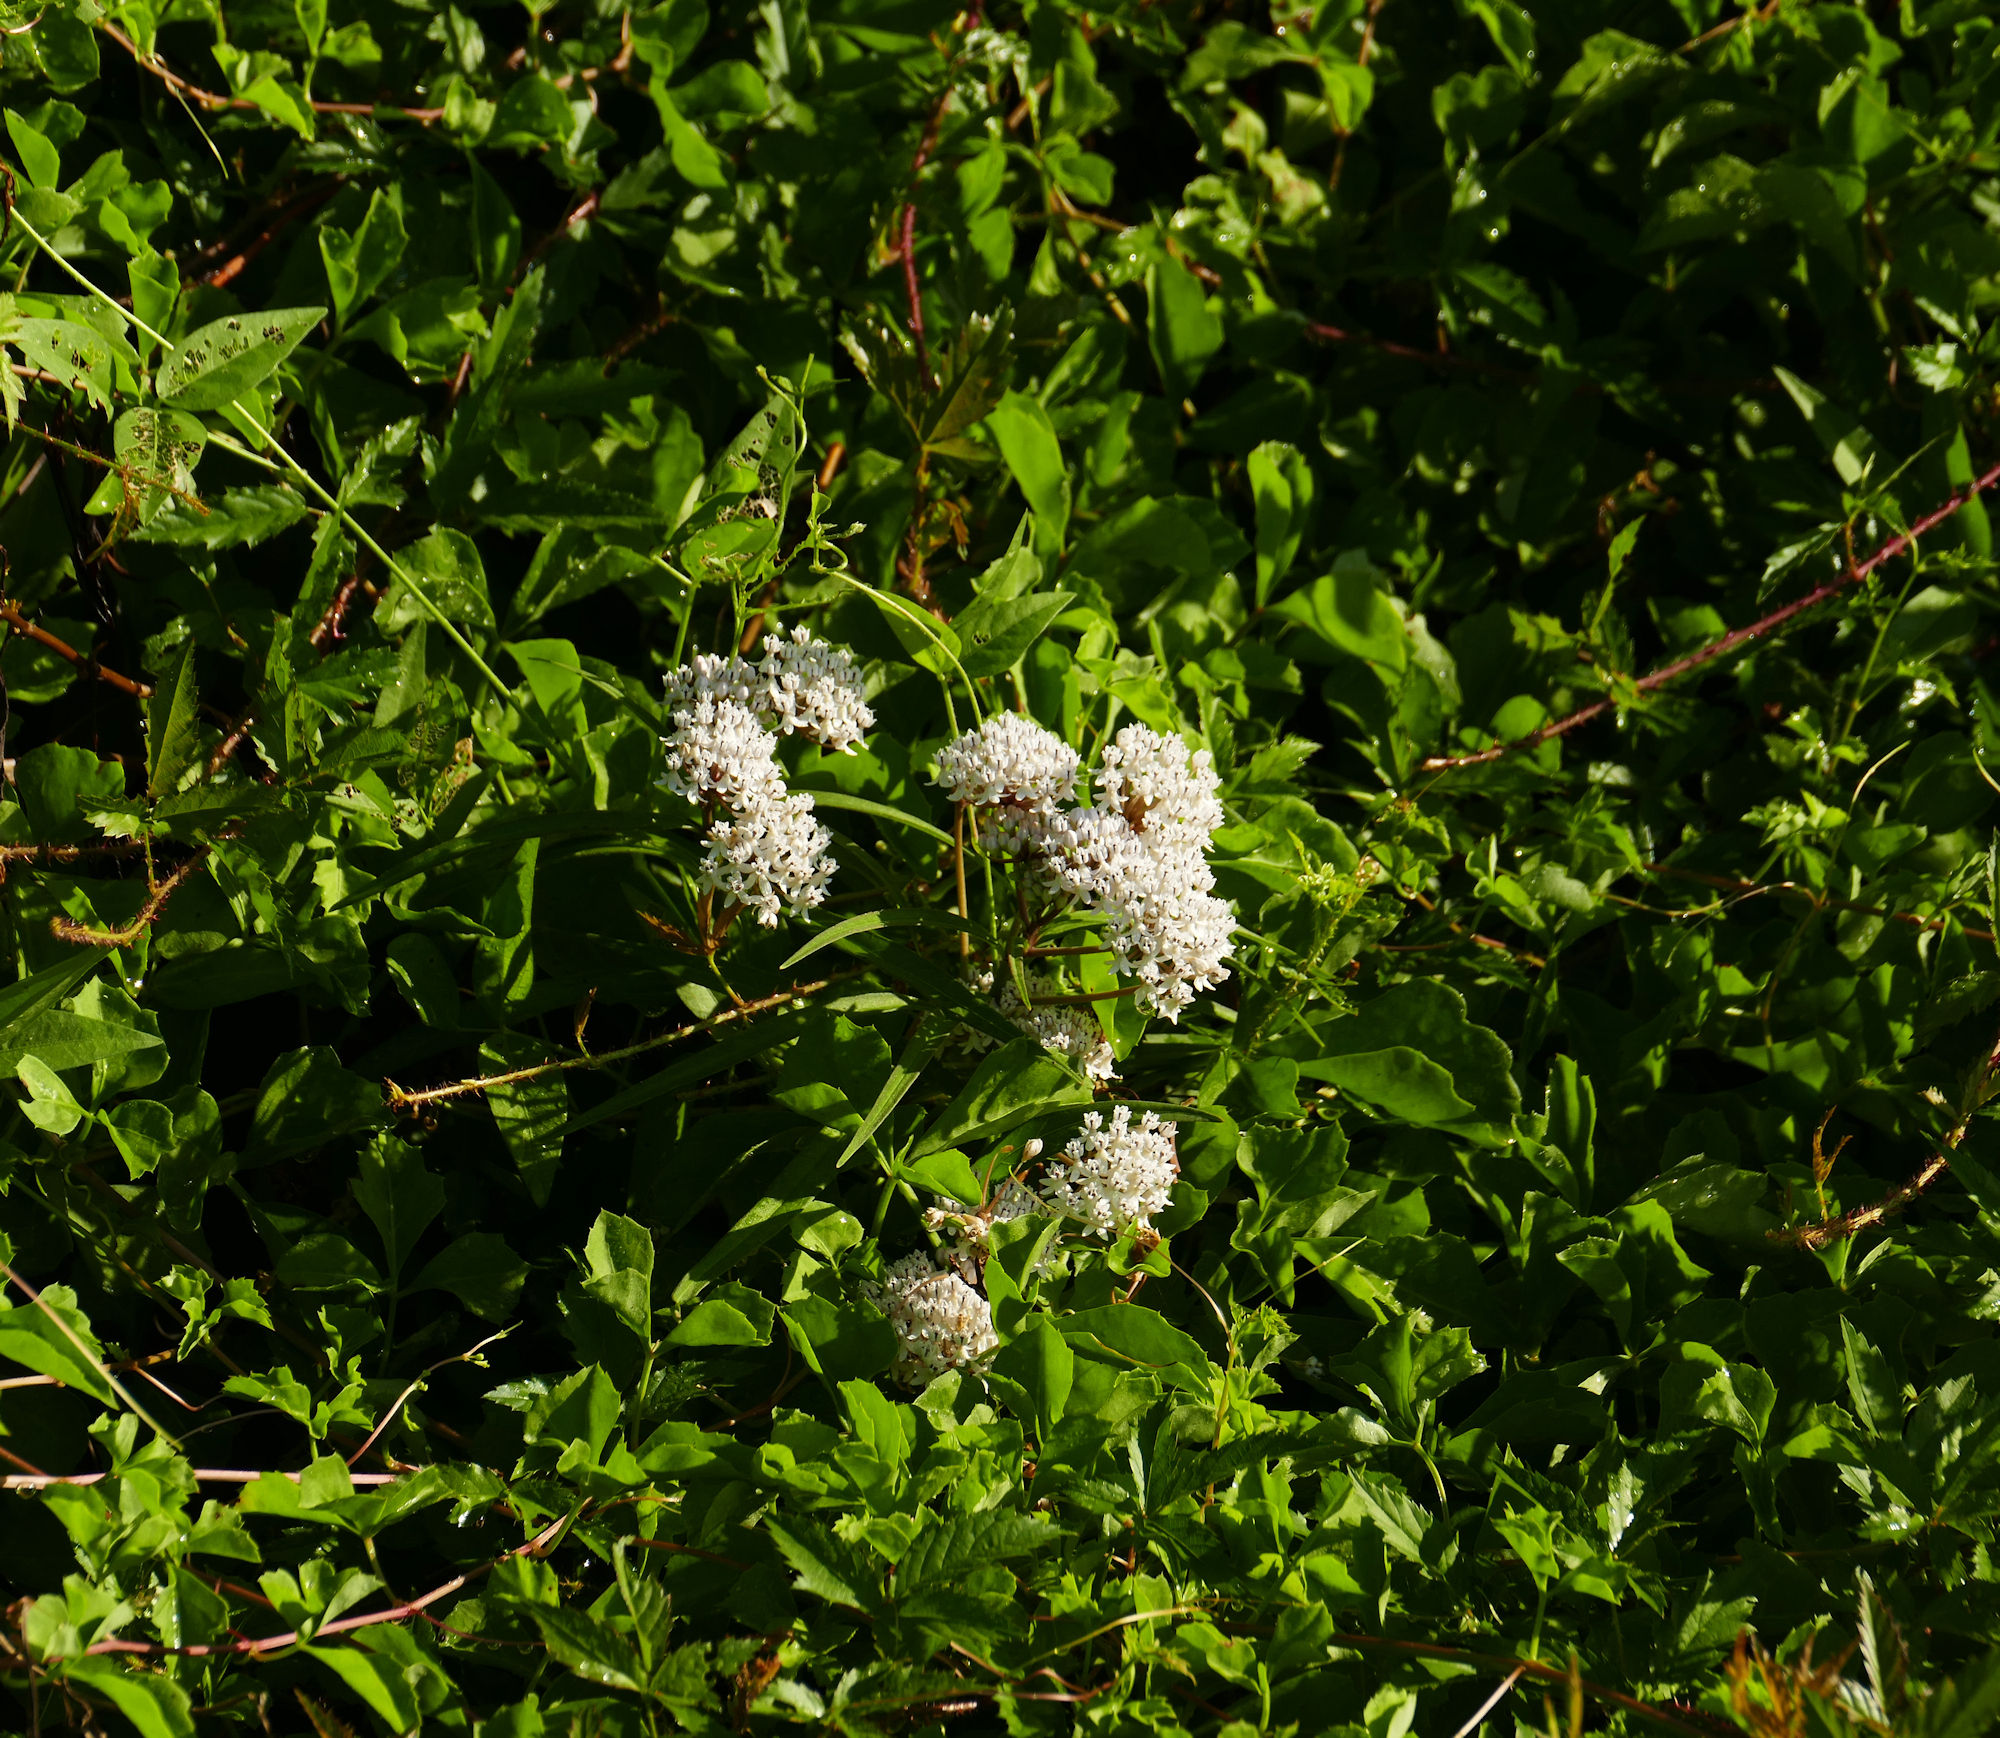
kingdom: Plantae
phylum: Tracheophyta
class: Magnoliopsida
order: Gentianales
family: Apocynaceae
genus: Asclepias
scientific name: Asclepias perennis
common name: Smooth-seed milkweed
